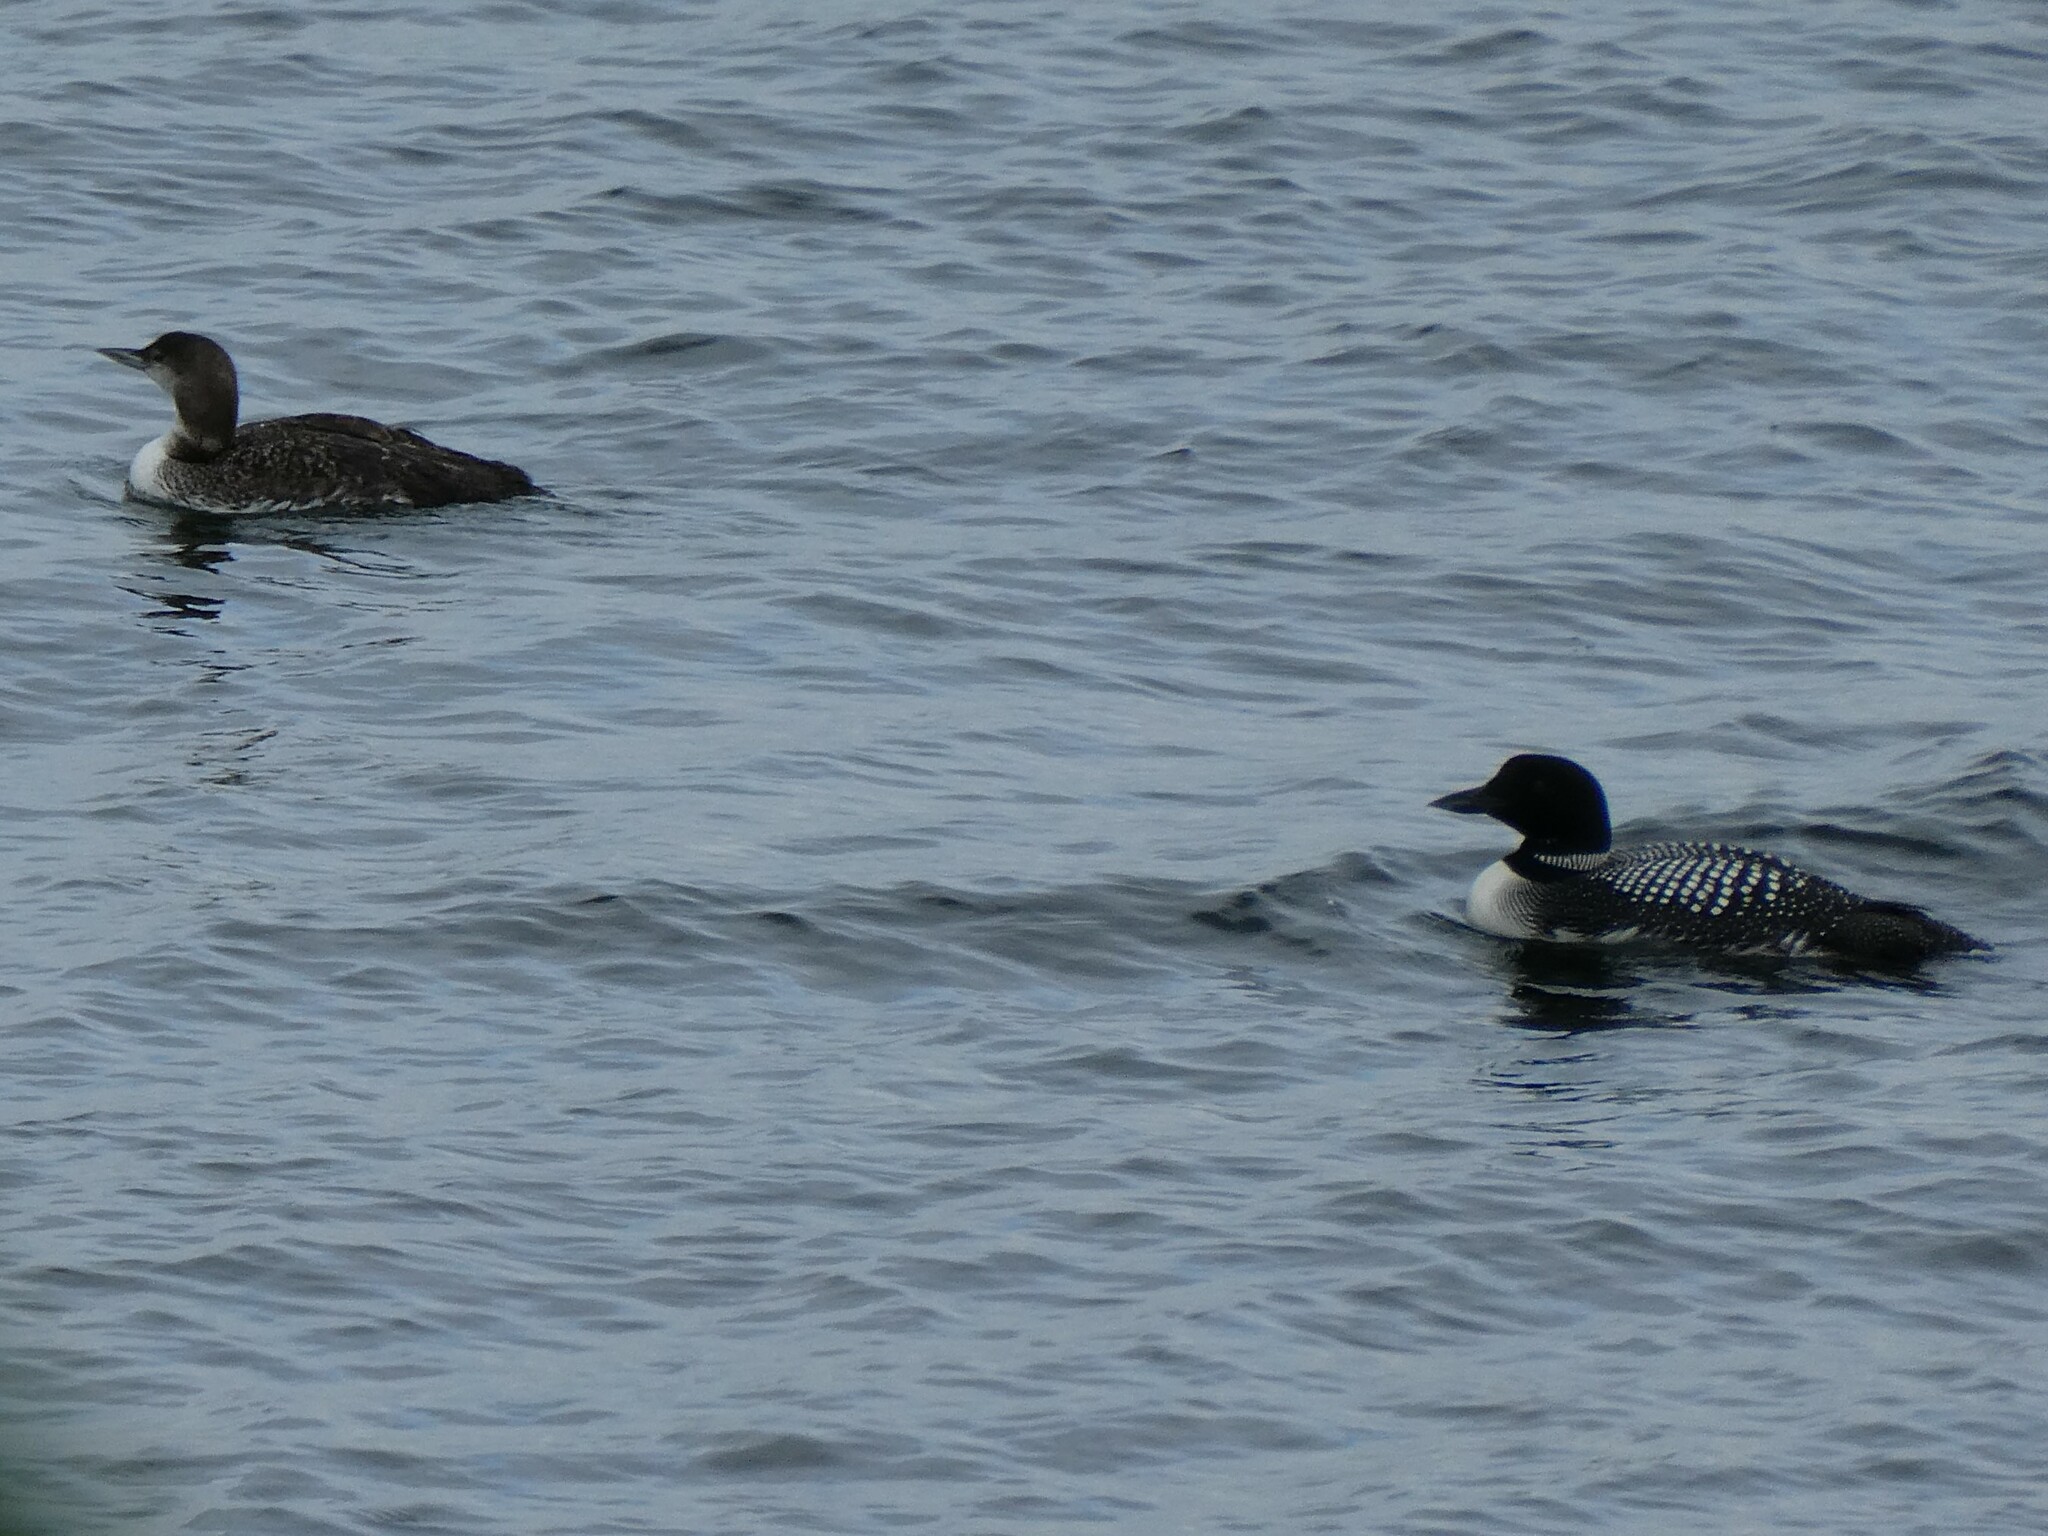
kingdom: Animalia
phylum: Chordata
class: Aves
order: Gaviiformes
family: Gaviidae
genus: Gavia
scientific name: Gavia immer
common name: Common loon
